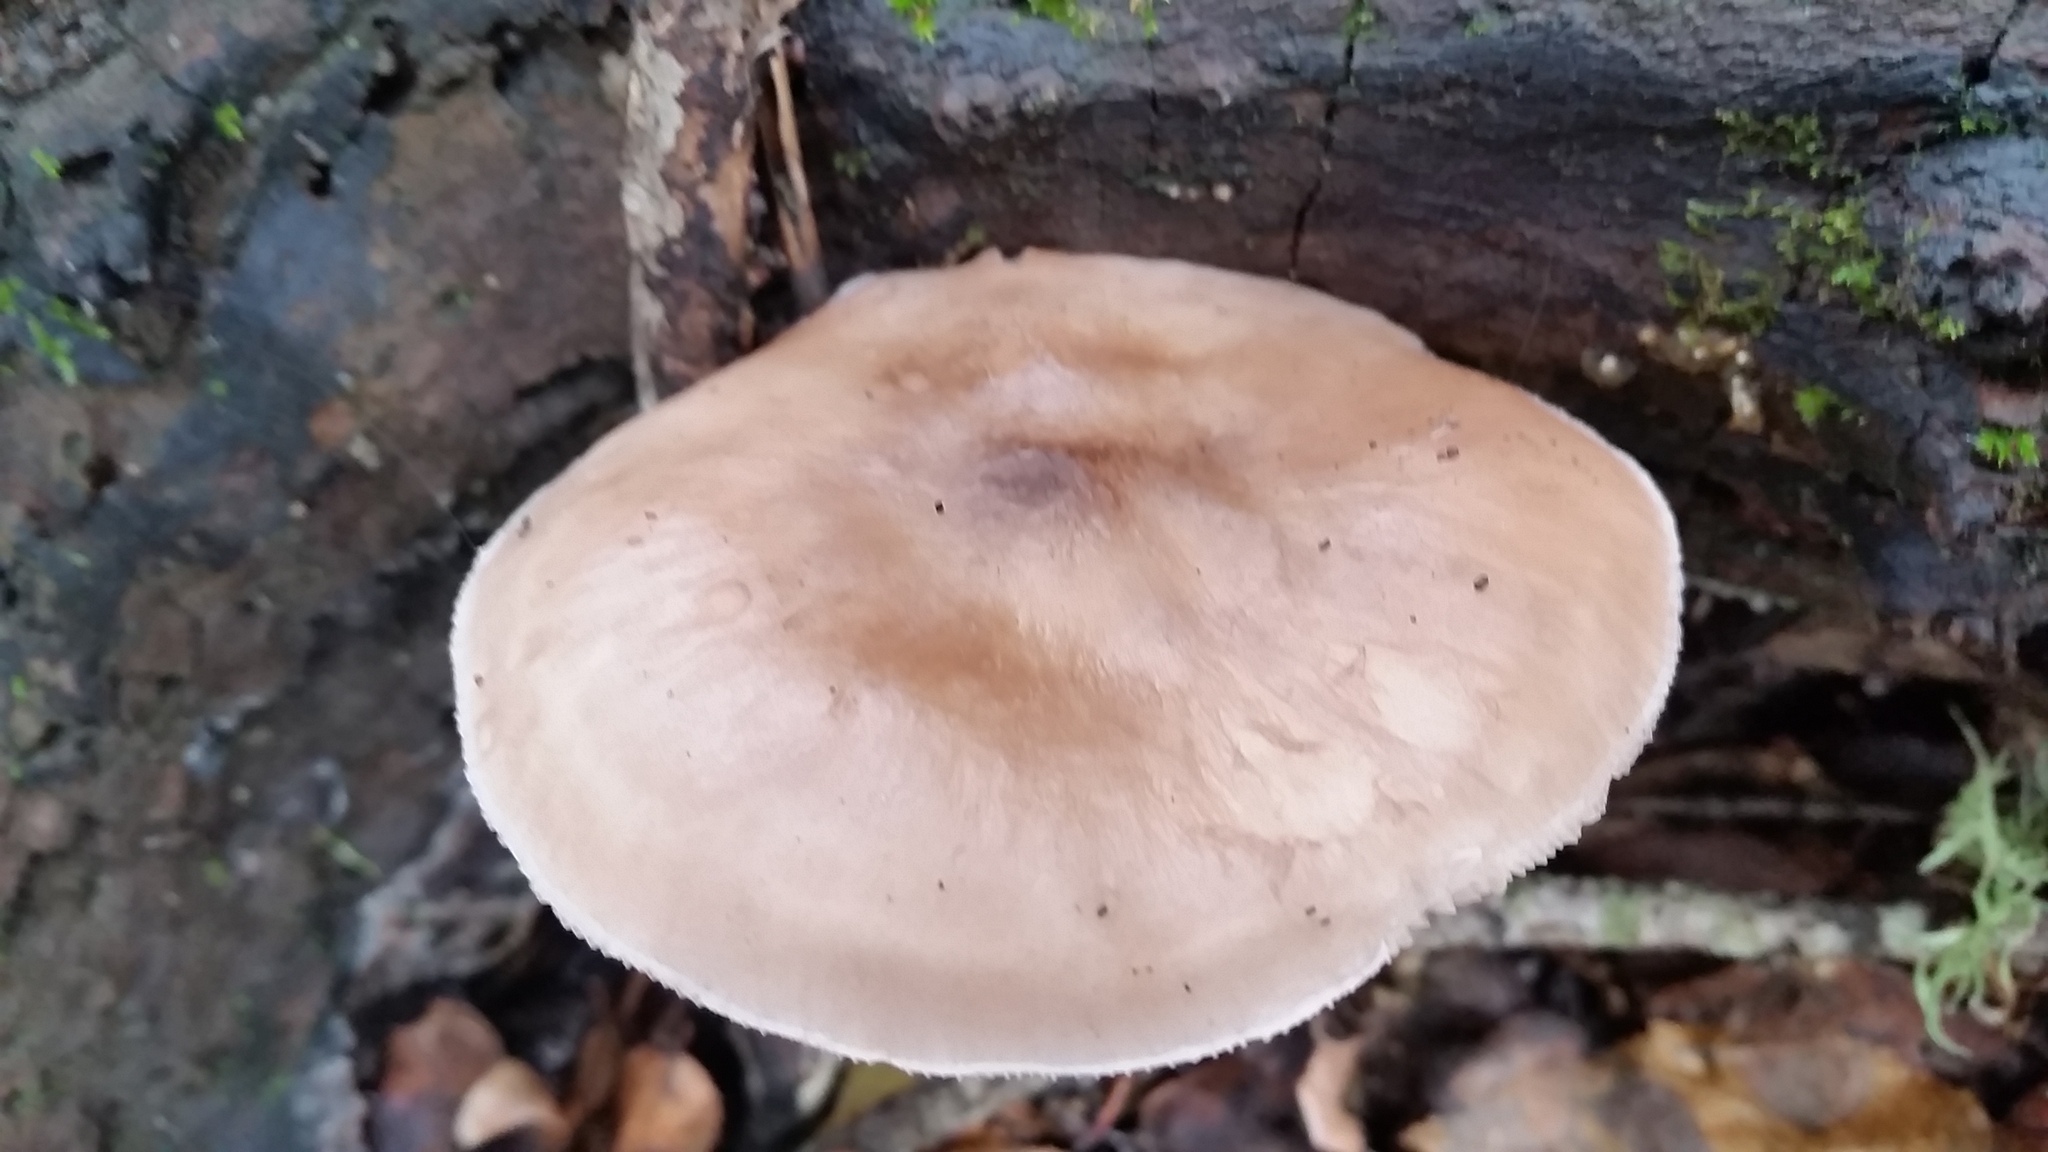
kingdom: Fungi
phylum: Basidiomycota
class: Agaricomycetes
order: Agaricales
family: Pluteaceae
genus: Pluteus
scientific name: Pluteus cervinus
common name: Deer shield
